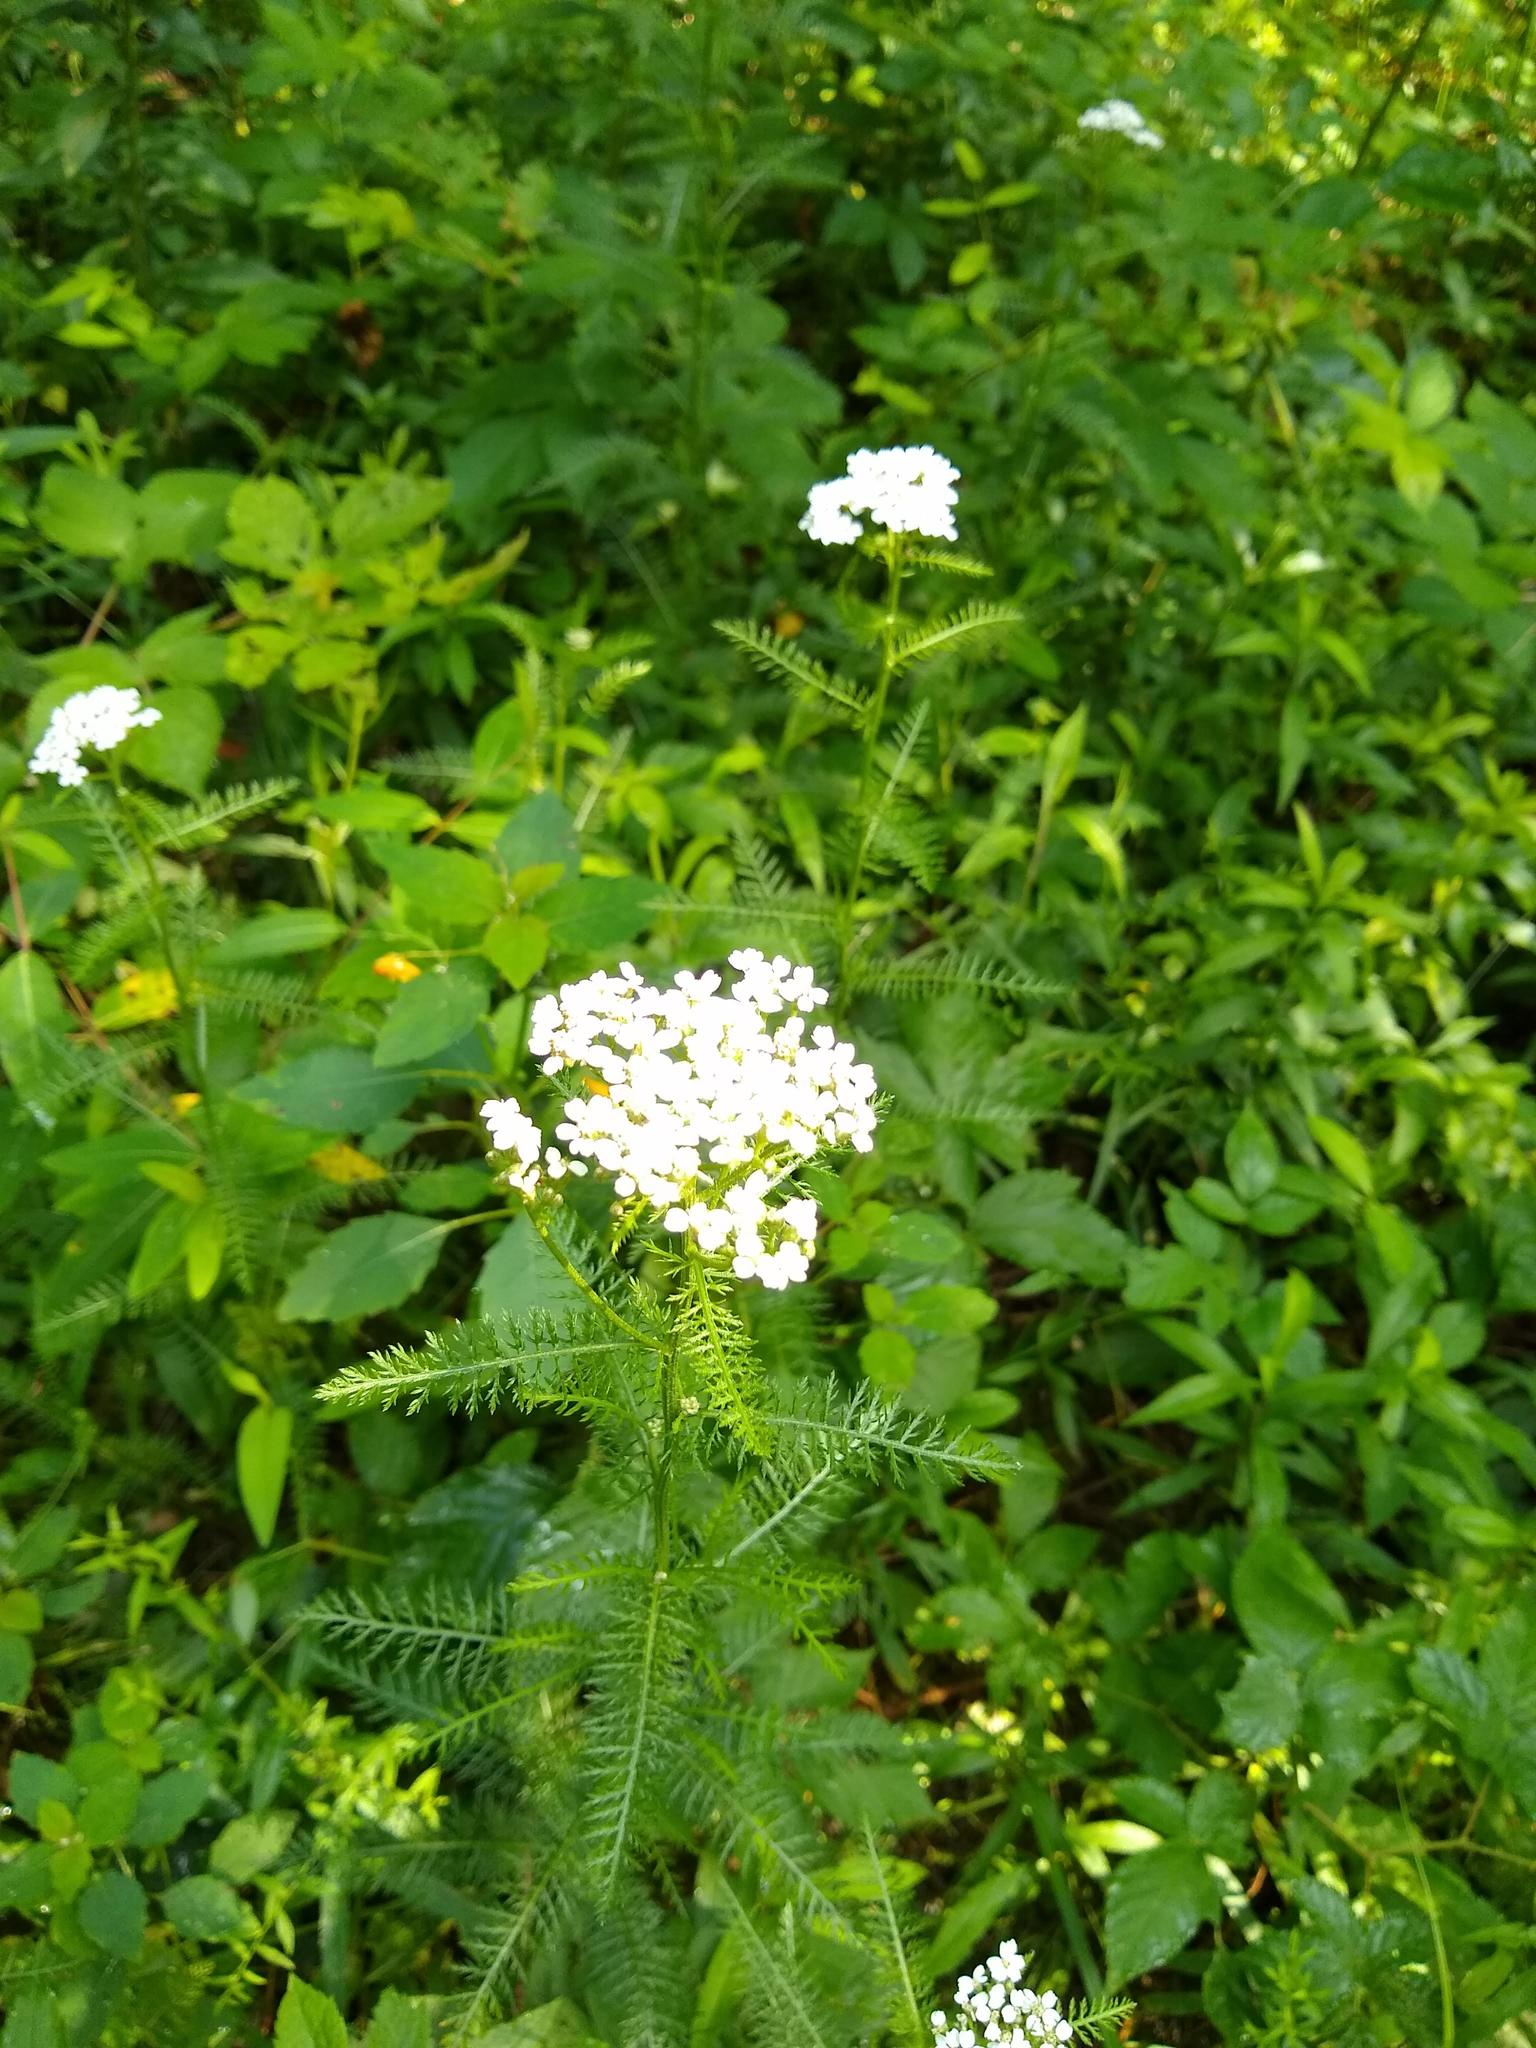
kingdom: Plantae
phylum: Tracheophyta
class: Magnoliopsida
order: Asterales
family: Asteraceae
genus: Achillea
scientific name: Achillea millefolium
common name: Yarrow
